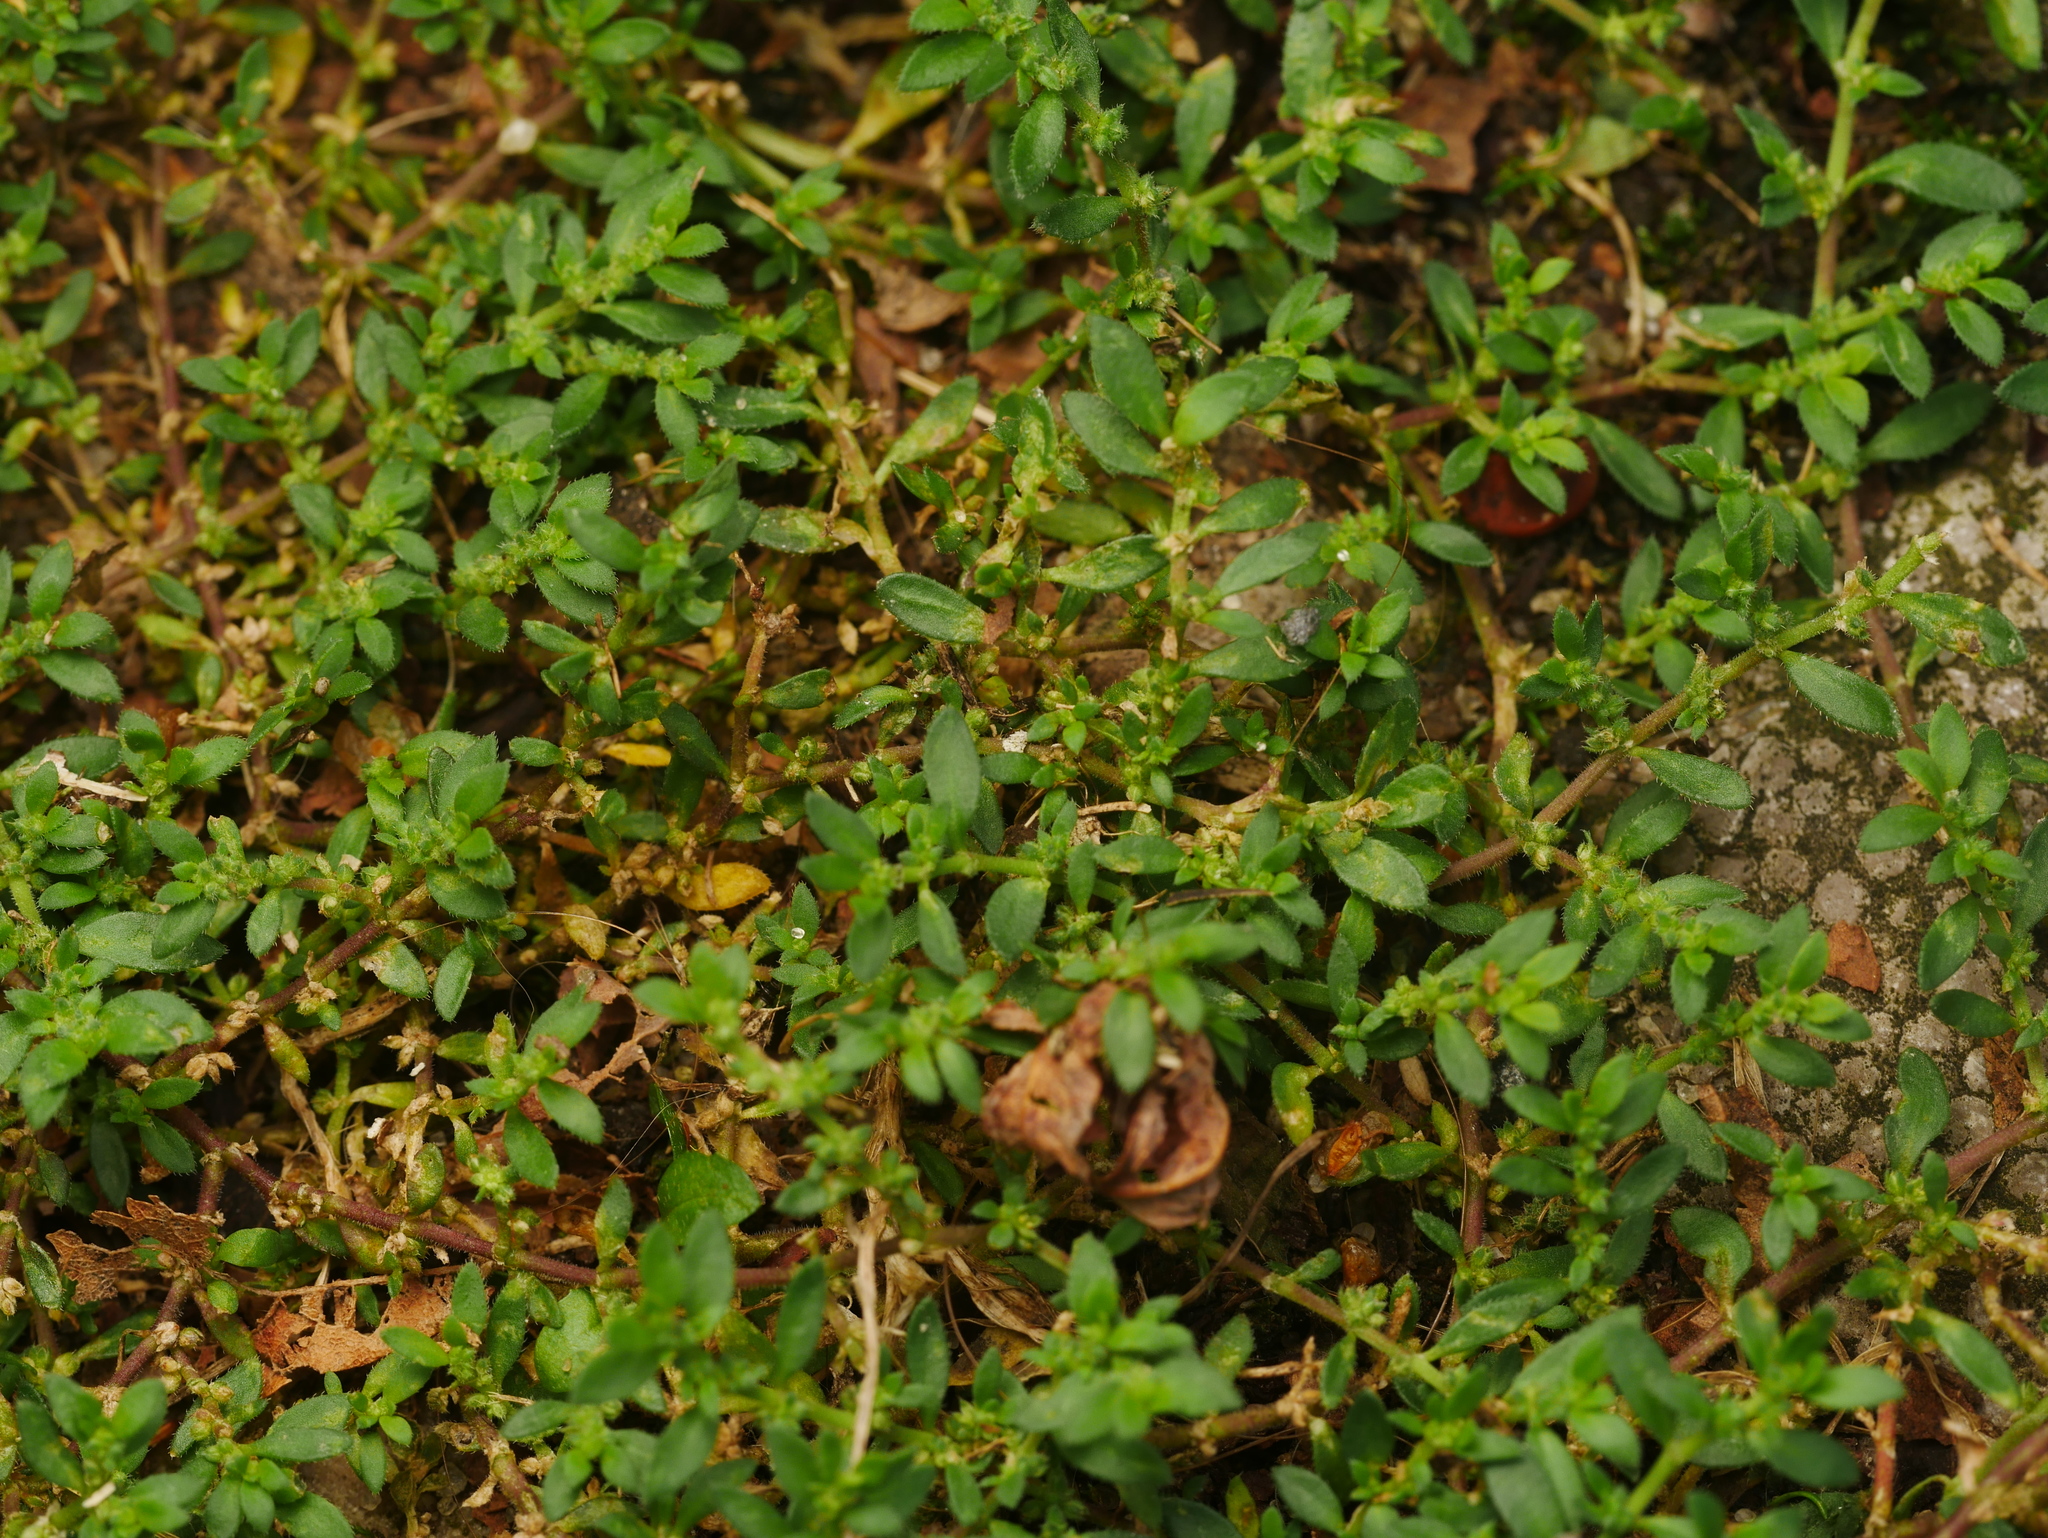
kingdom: Plantae
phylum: Tracheophyta
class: Magnoliopsida
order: Caryophyllales
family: Caryophyllaceae
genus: Herniaria
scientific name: Herniaria hirsuta
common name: Hairy rupturewort
